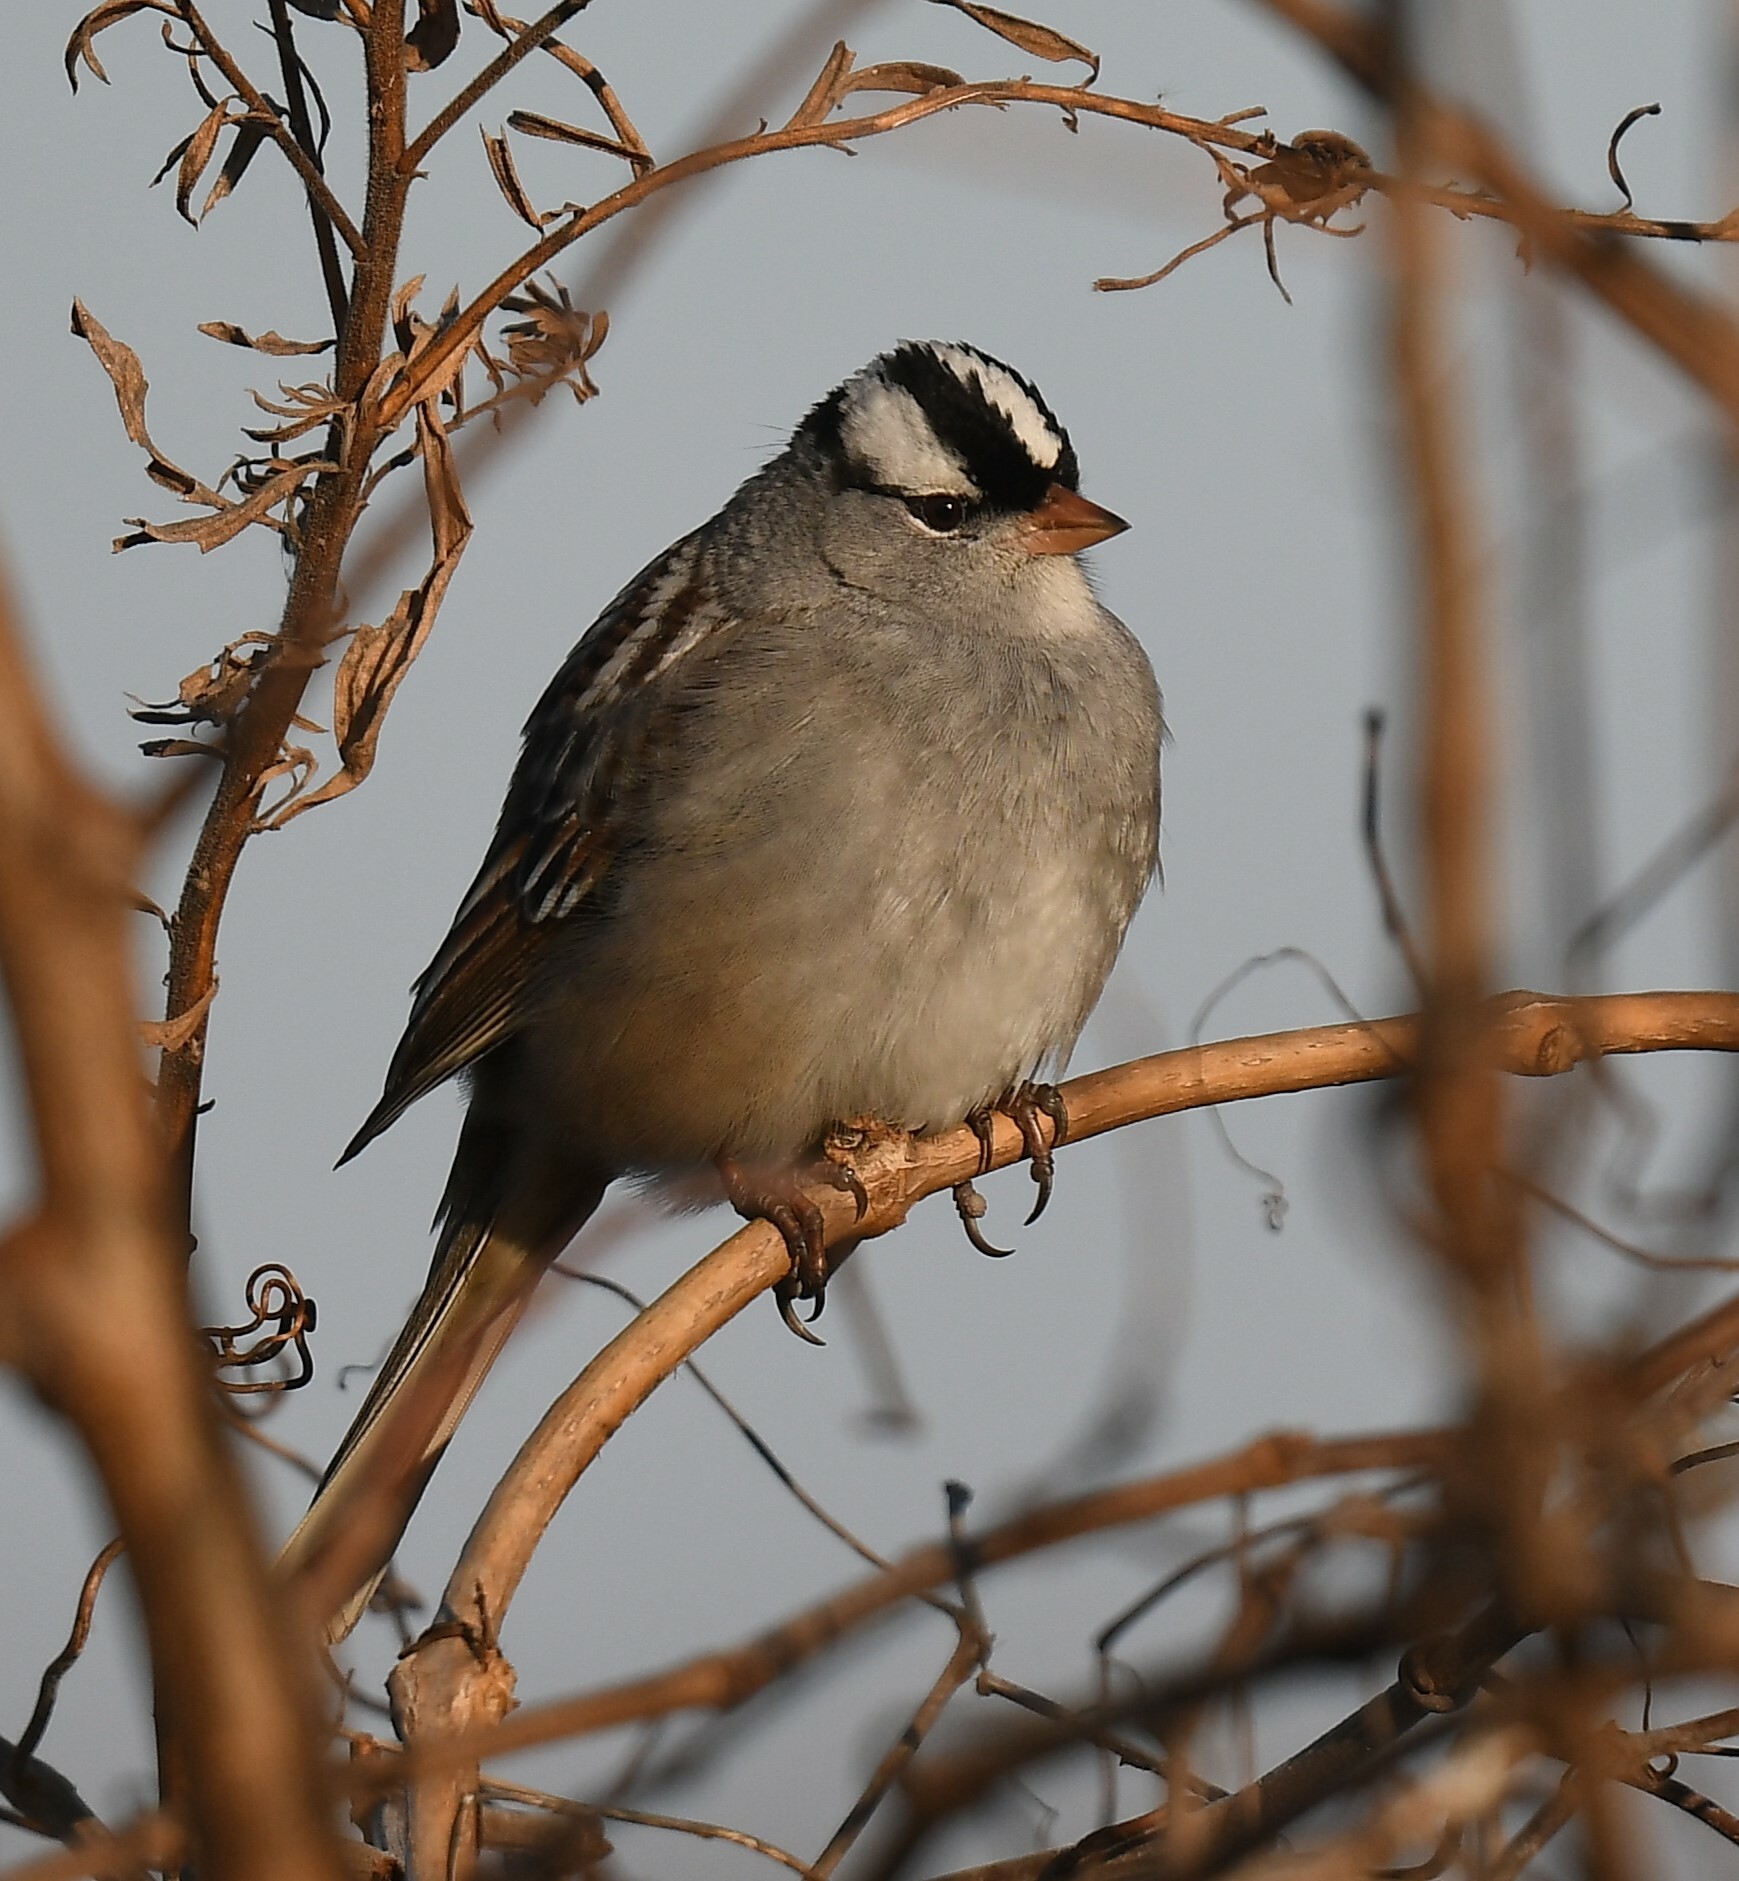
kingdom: Animalia
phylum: Chordata
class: Aves
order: Passeriformes
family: Passerellidae
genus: Zonotrichia
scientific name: Zonotrichia leucophrys
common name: White-crowned sparrow
